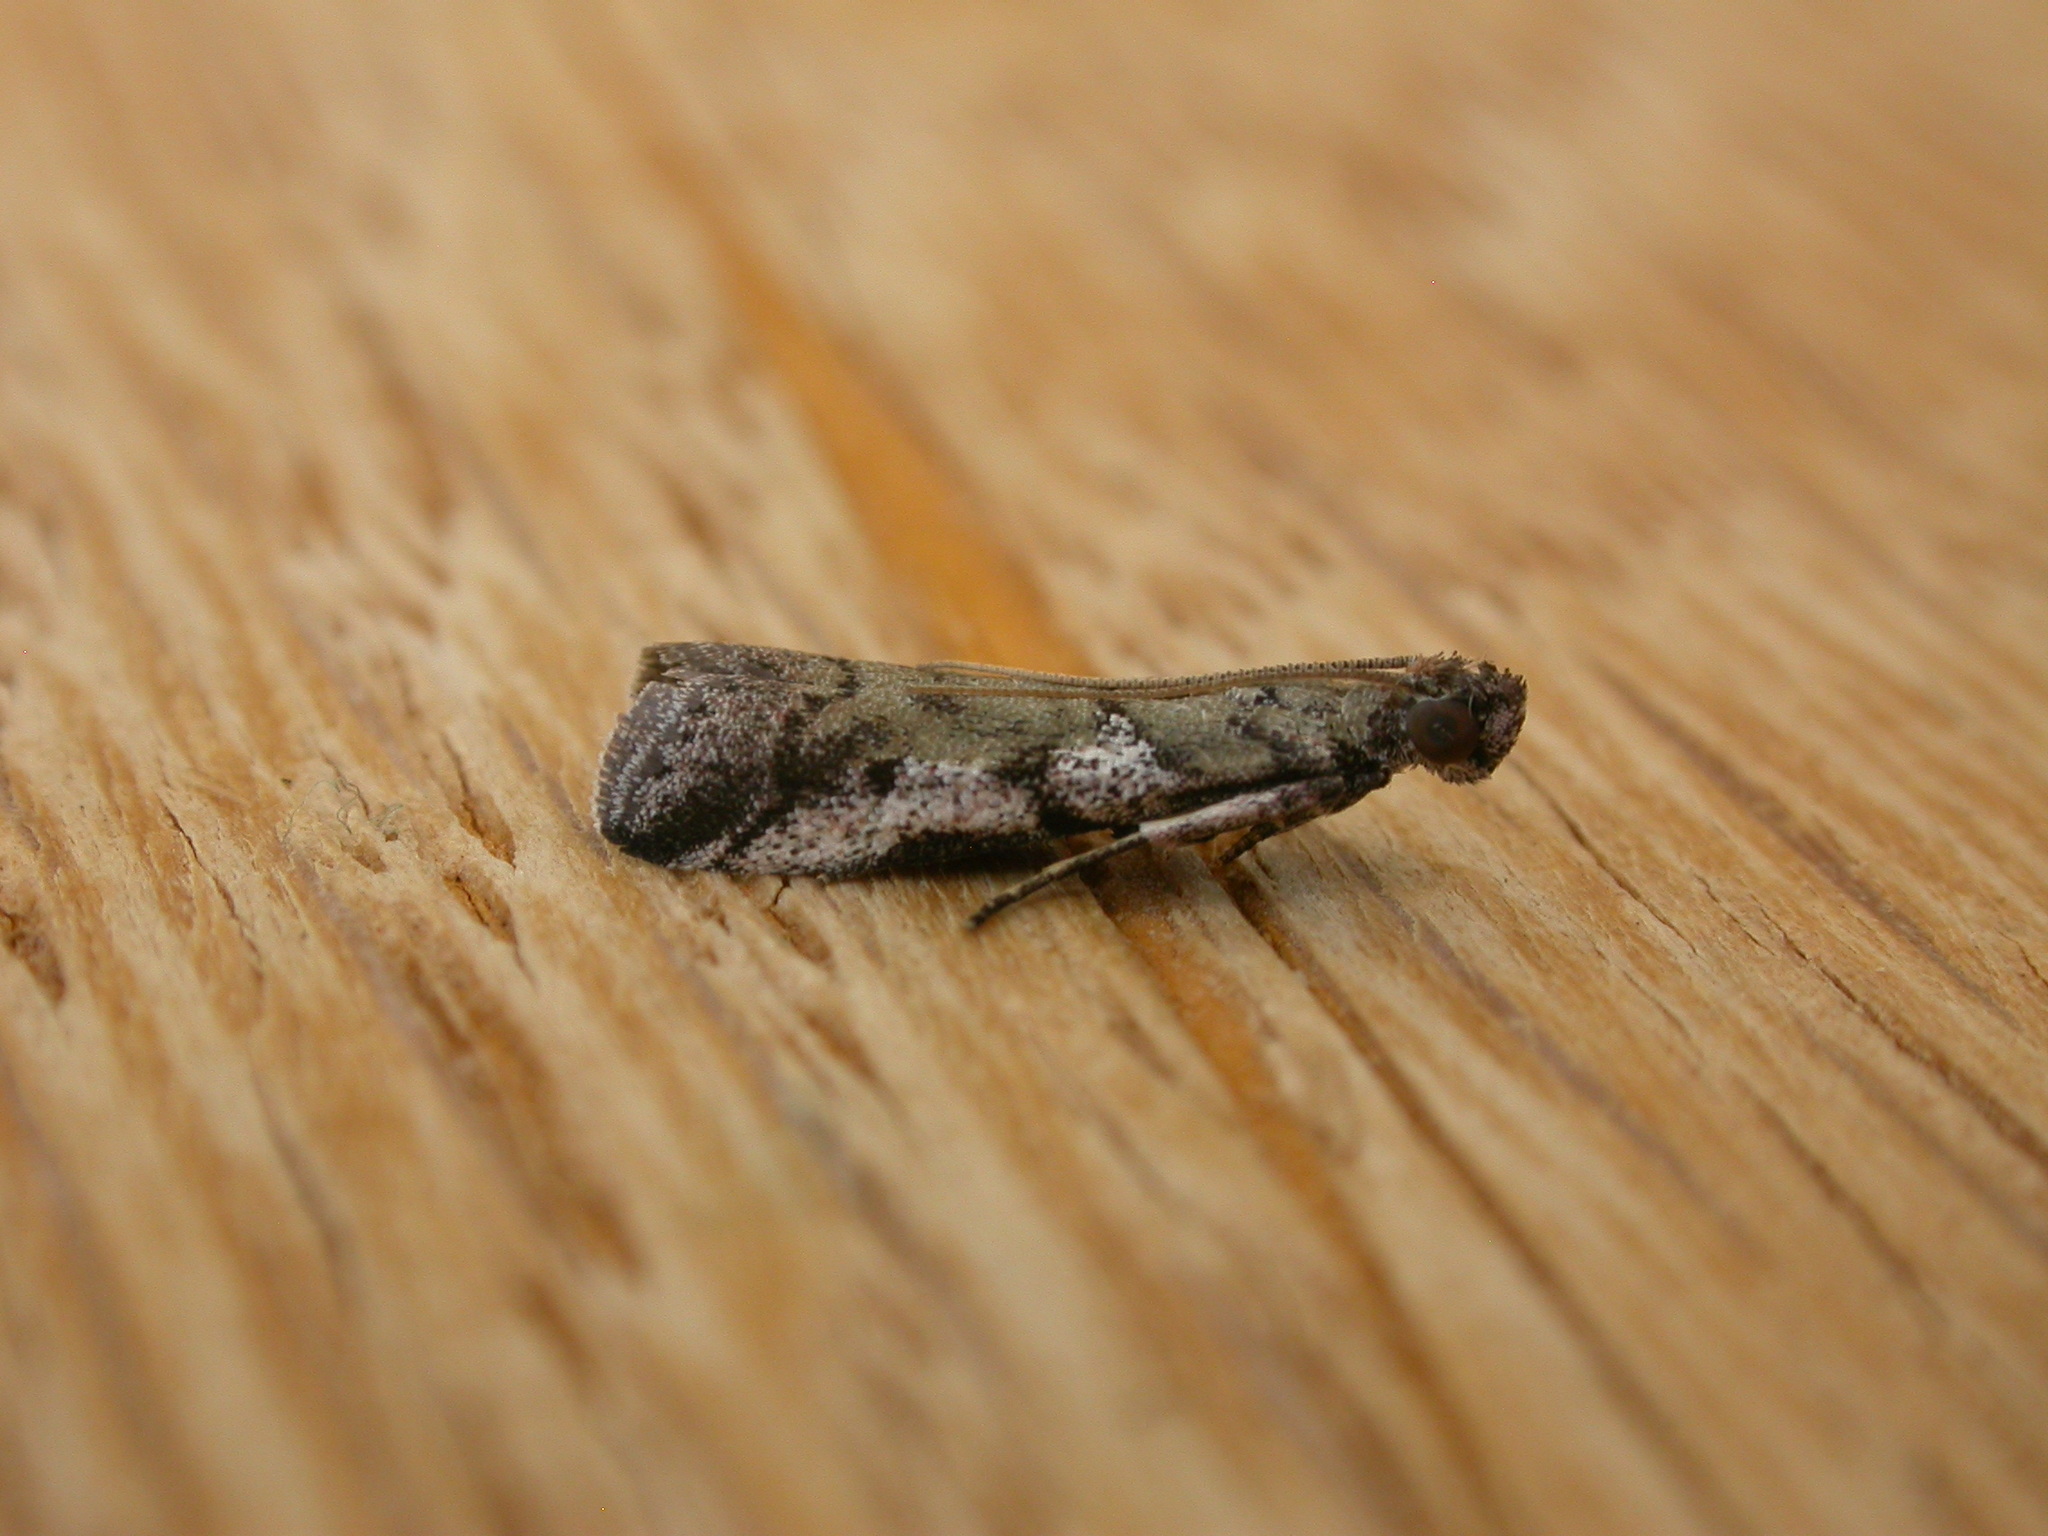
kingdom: Animalia
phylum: Arthropoda
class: Insecta
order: Lepidoptera
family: Pyralidae
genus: Assara
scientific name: Assara holophragma
